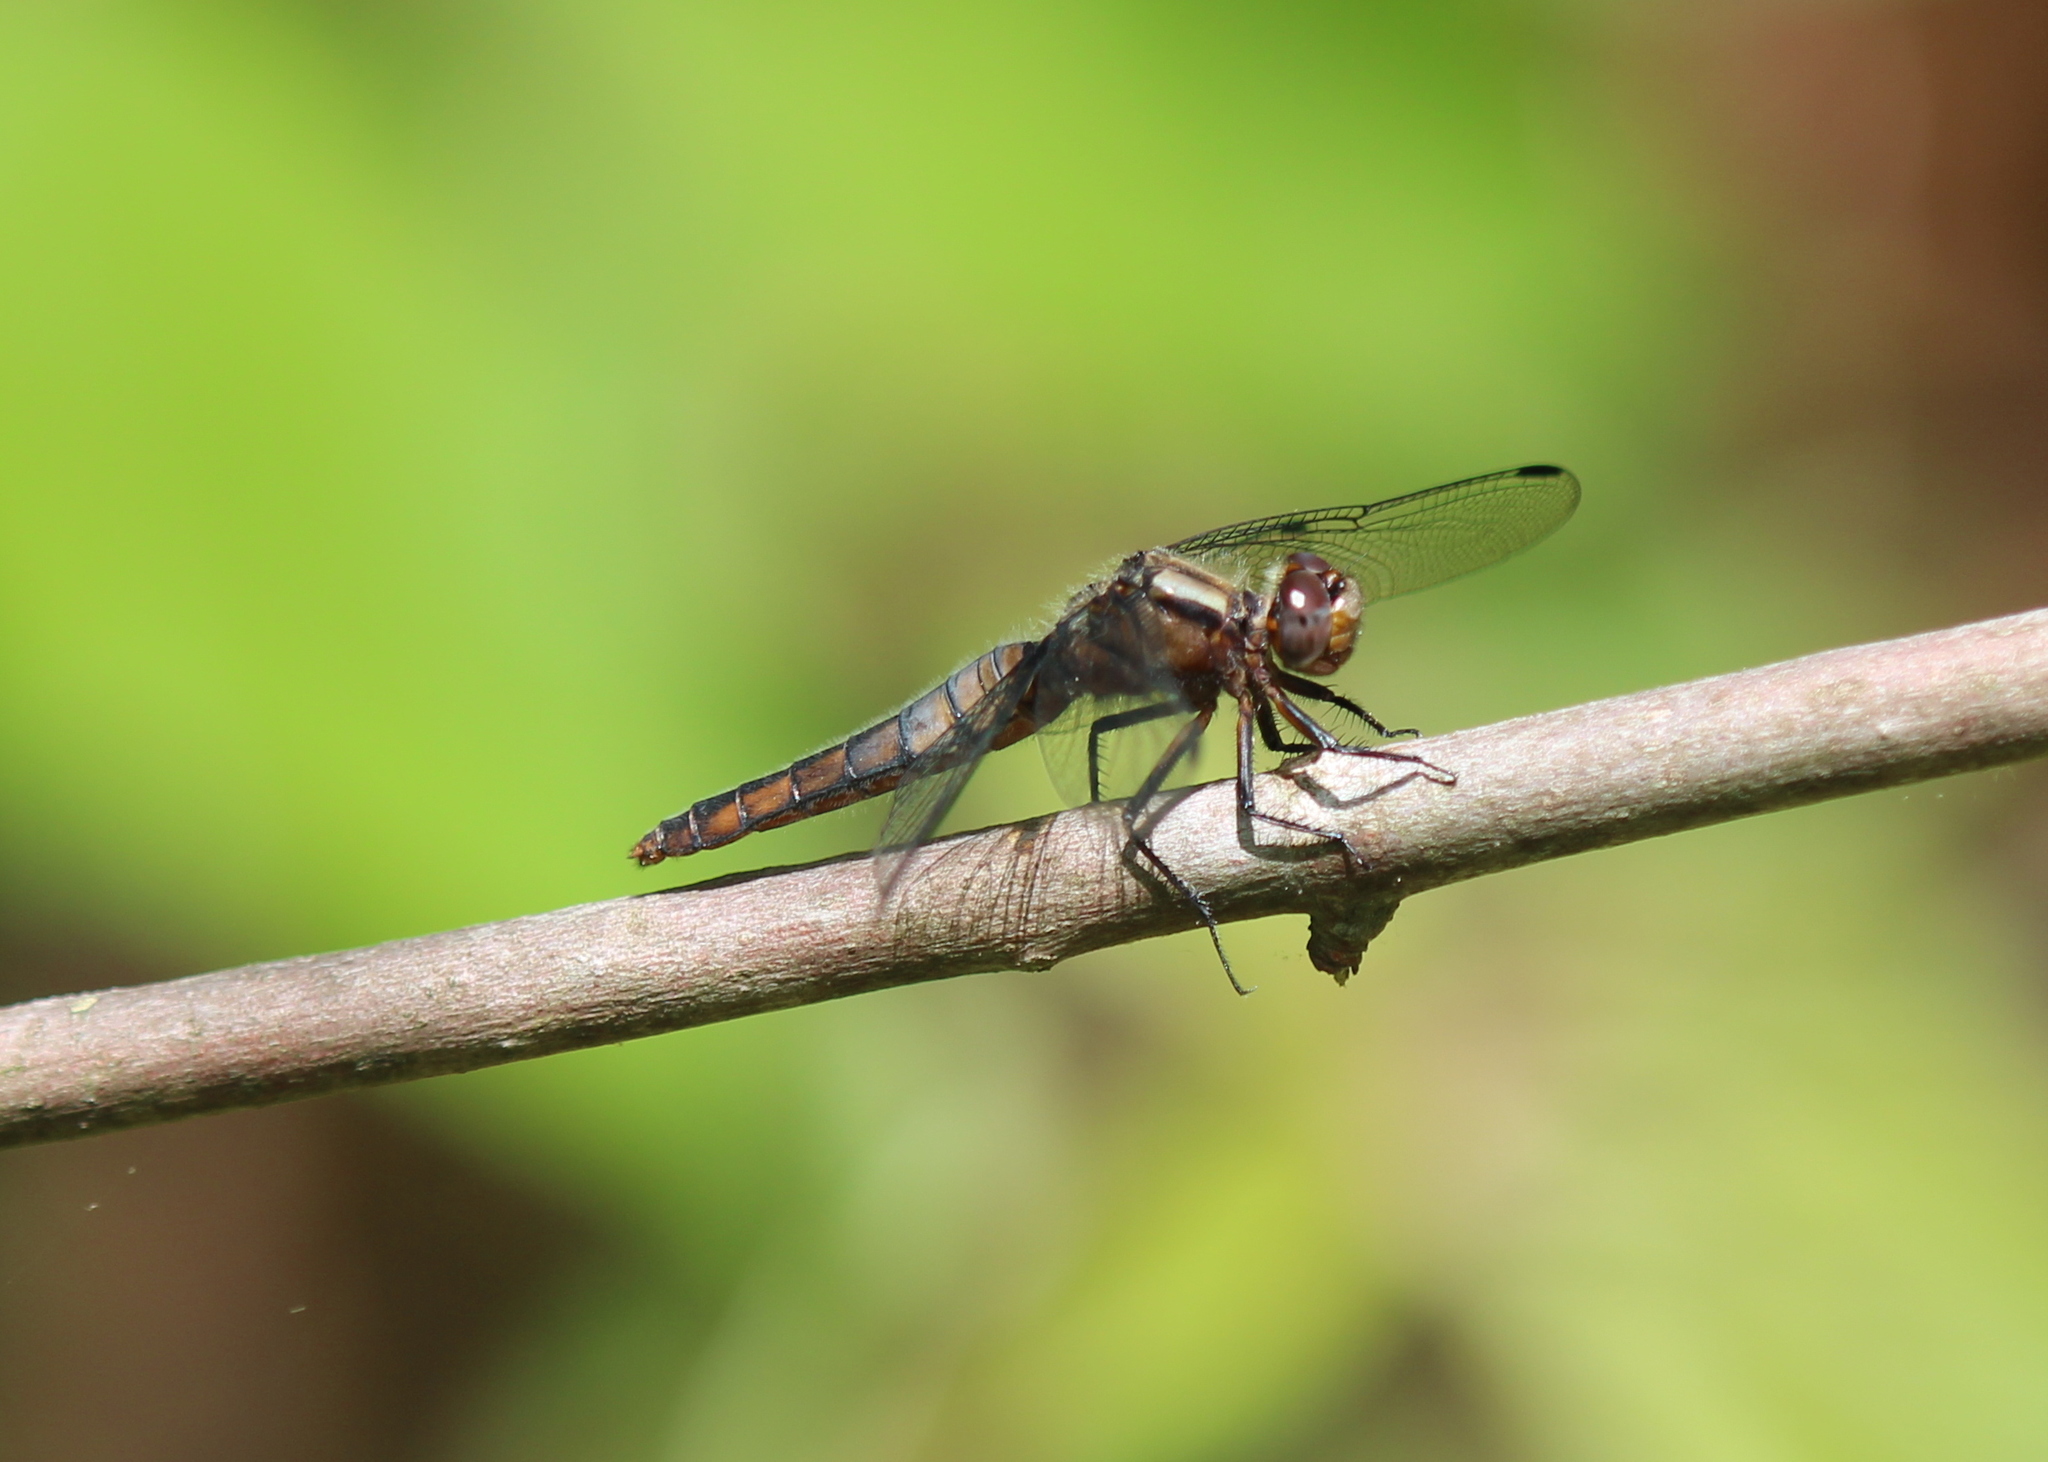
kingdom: Animalia
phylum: Arthropoda
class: Insecta
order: Odonata
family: Libellulidae
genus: Ladona
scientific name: Ladona julia
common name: Chalk-fronted corporal
